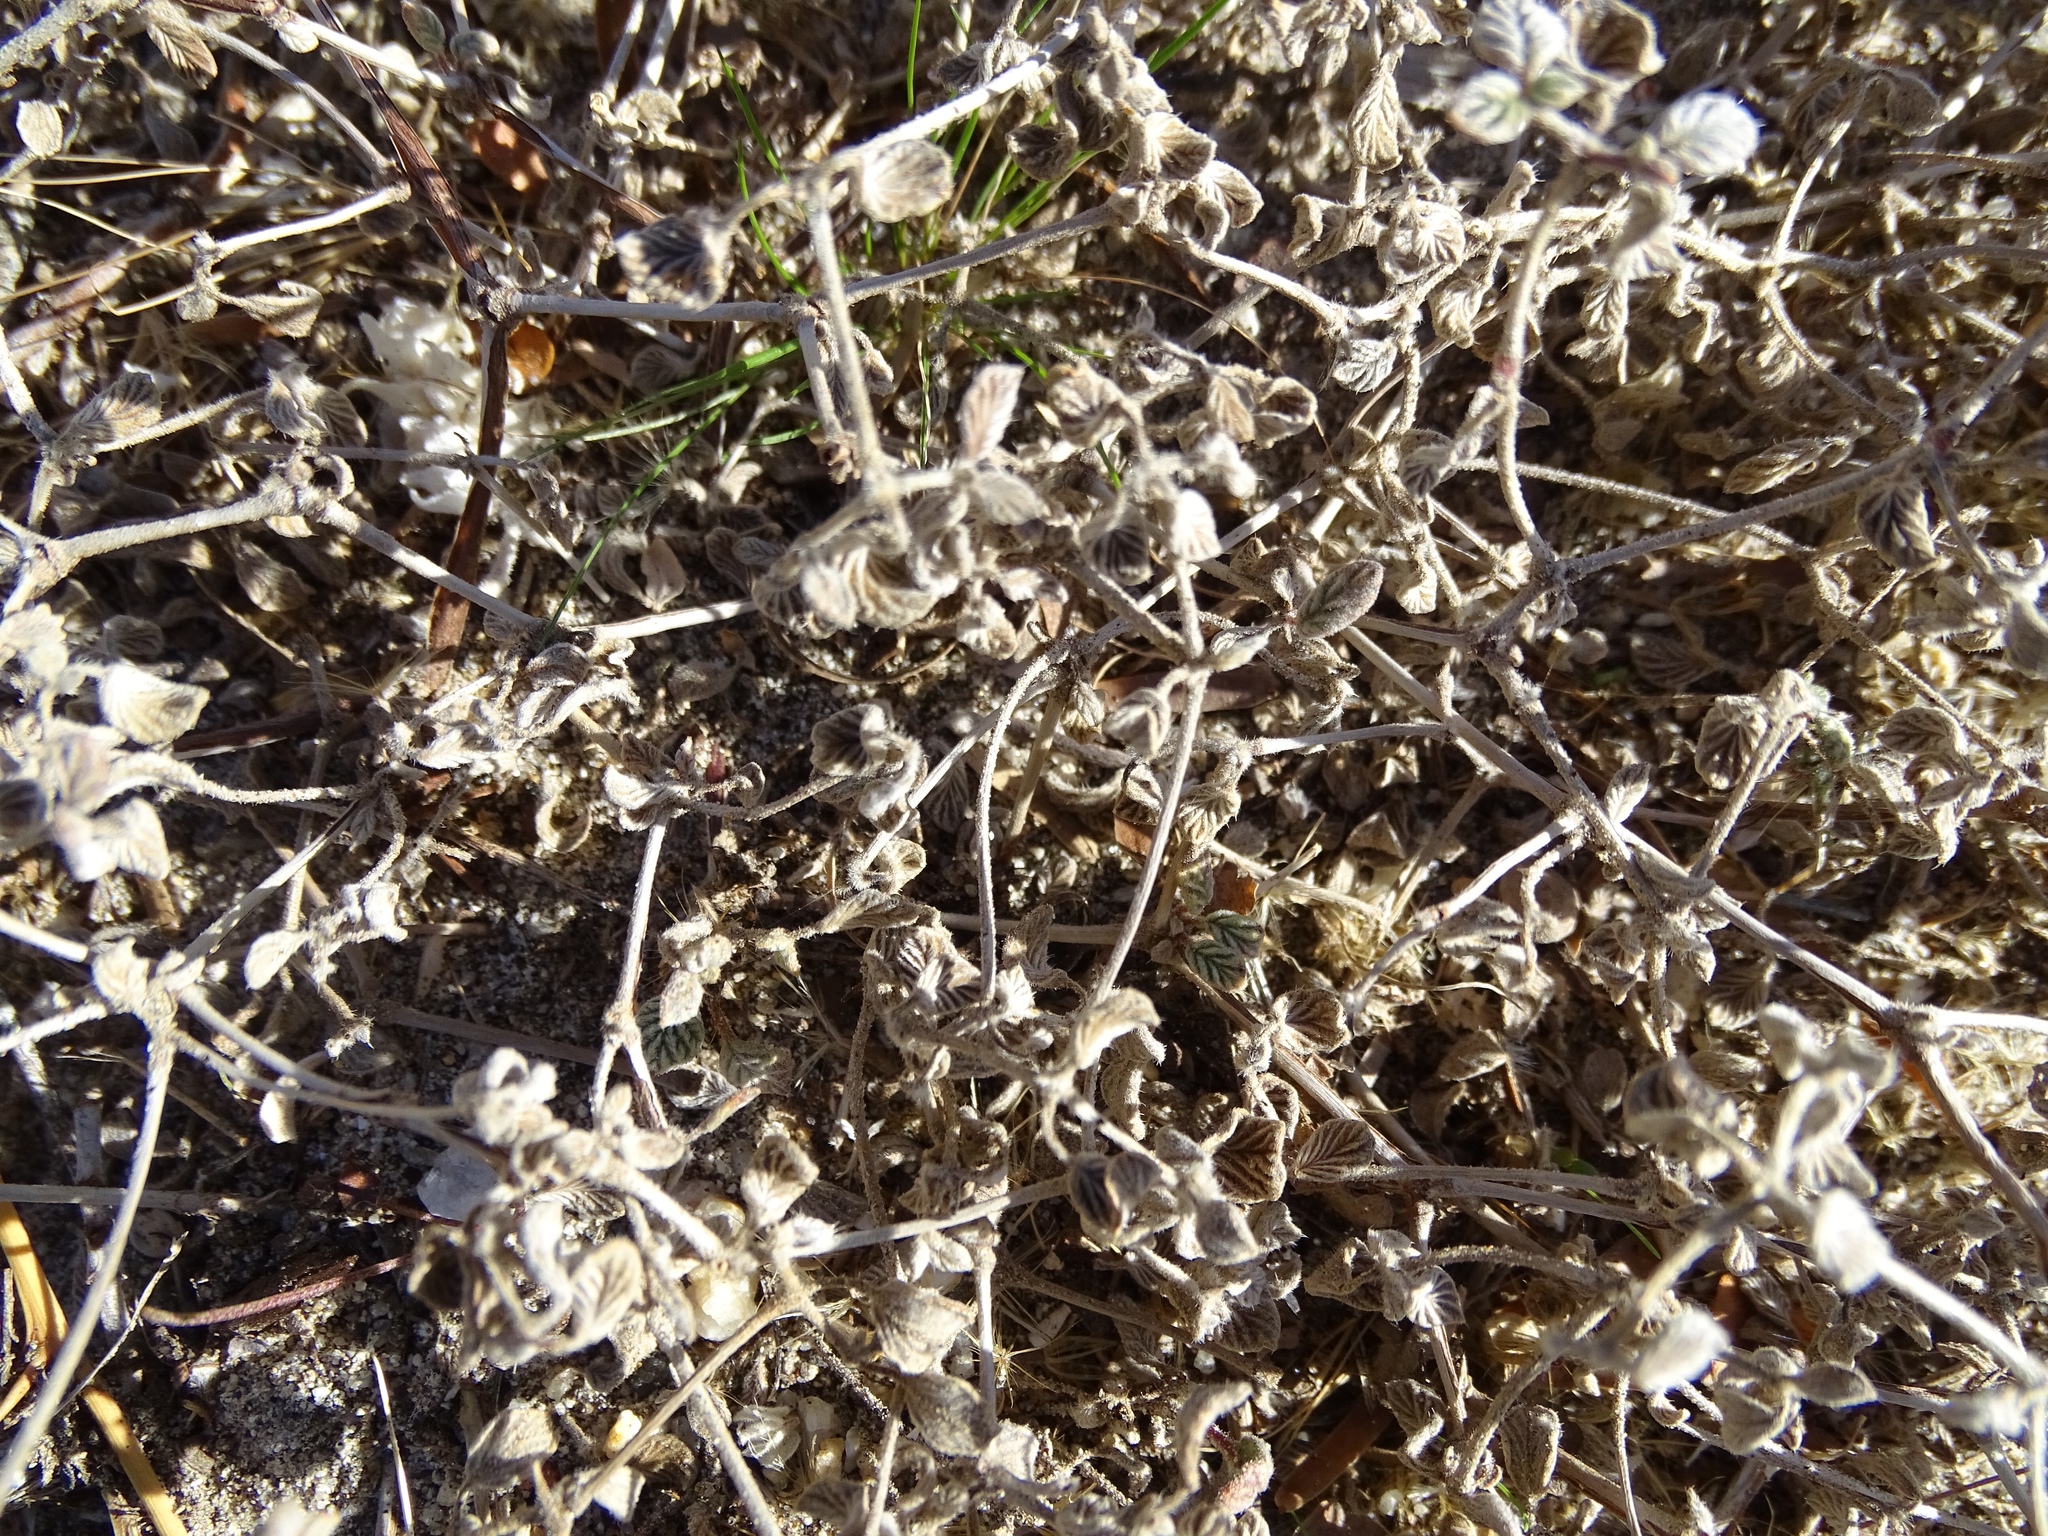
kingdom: Plantae
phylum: Tracheophyta
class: Magnoliopsida
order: Boraginales
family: Ehretiaceae
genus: Tiquilia
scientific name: Tiquilia plicata
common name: Fan-leaf tiquilia
